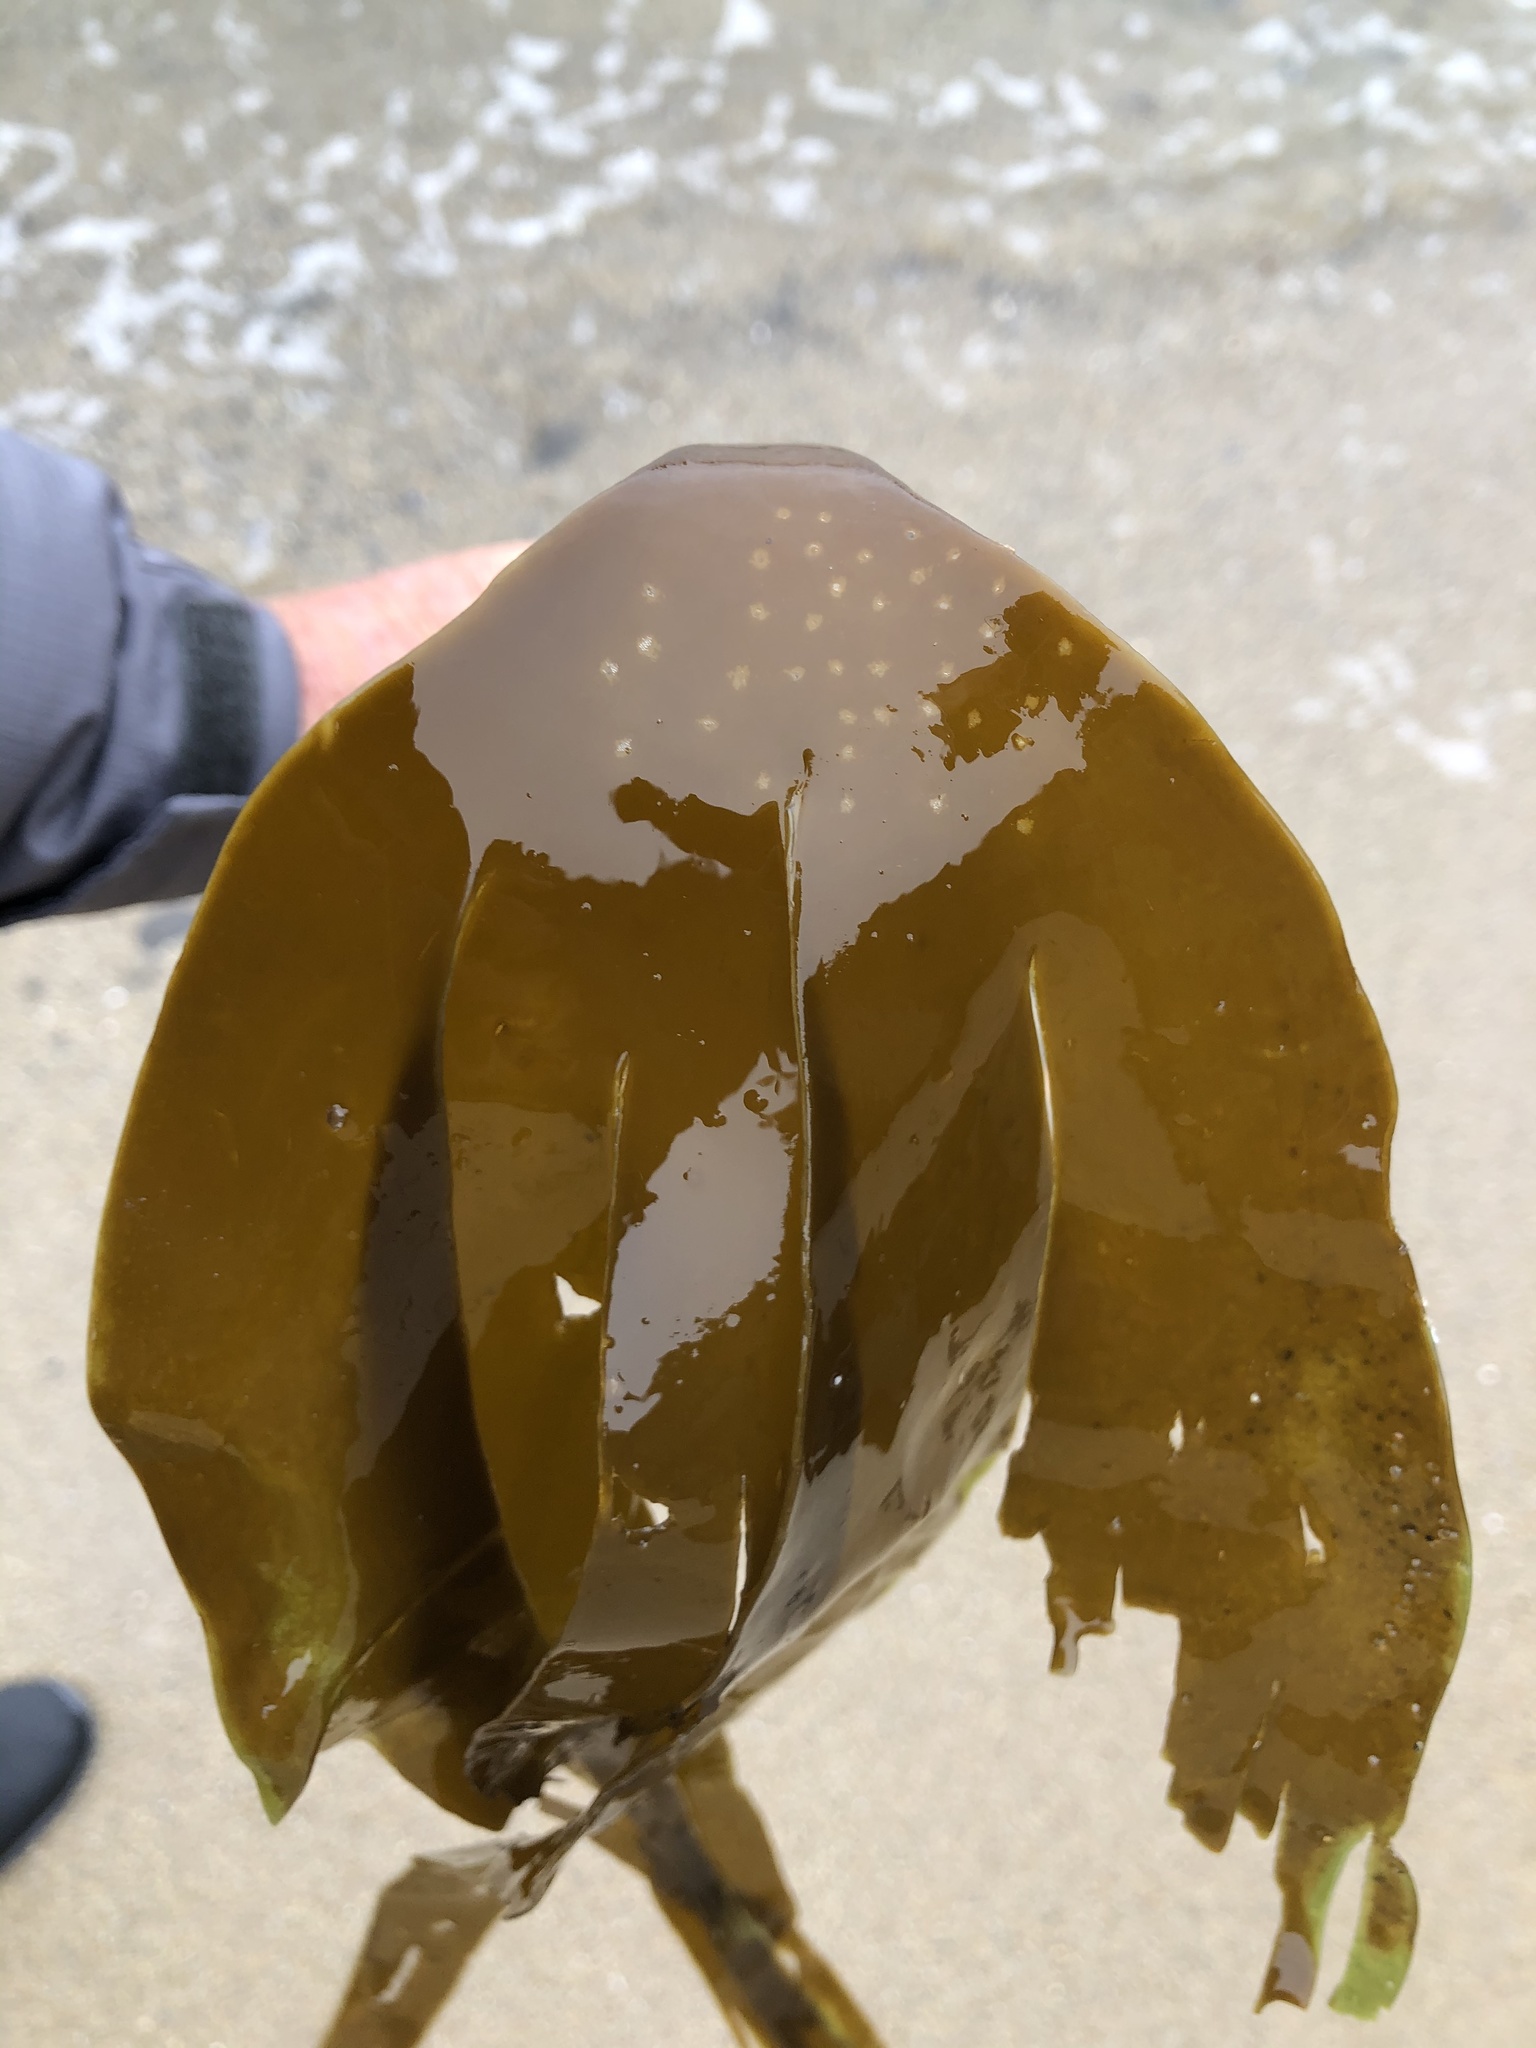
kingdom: Chromista
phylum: Ochrophyta
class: Phaeophyceae
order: Laminariales
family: Laminariaceae
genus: Laminaria
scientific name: Laminaria setchellii
